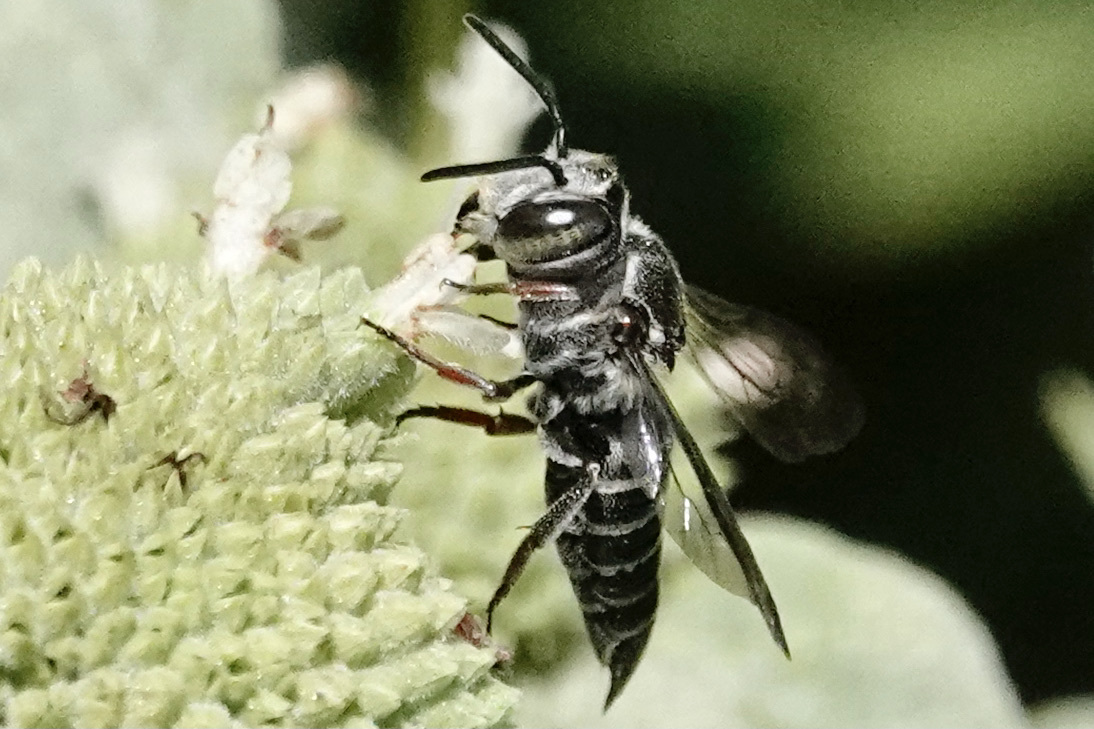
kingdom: Animalia
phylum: Arthropoda
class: Insecta
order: Hymenoptera
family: Megachilidae
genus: Coelioxys
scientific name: Coelioxys sayi
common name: Say's cuckoo leaf-cutter bee
